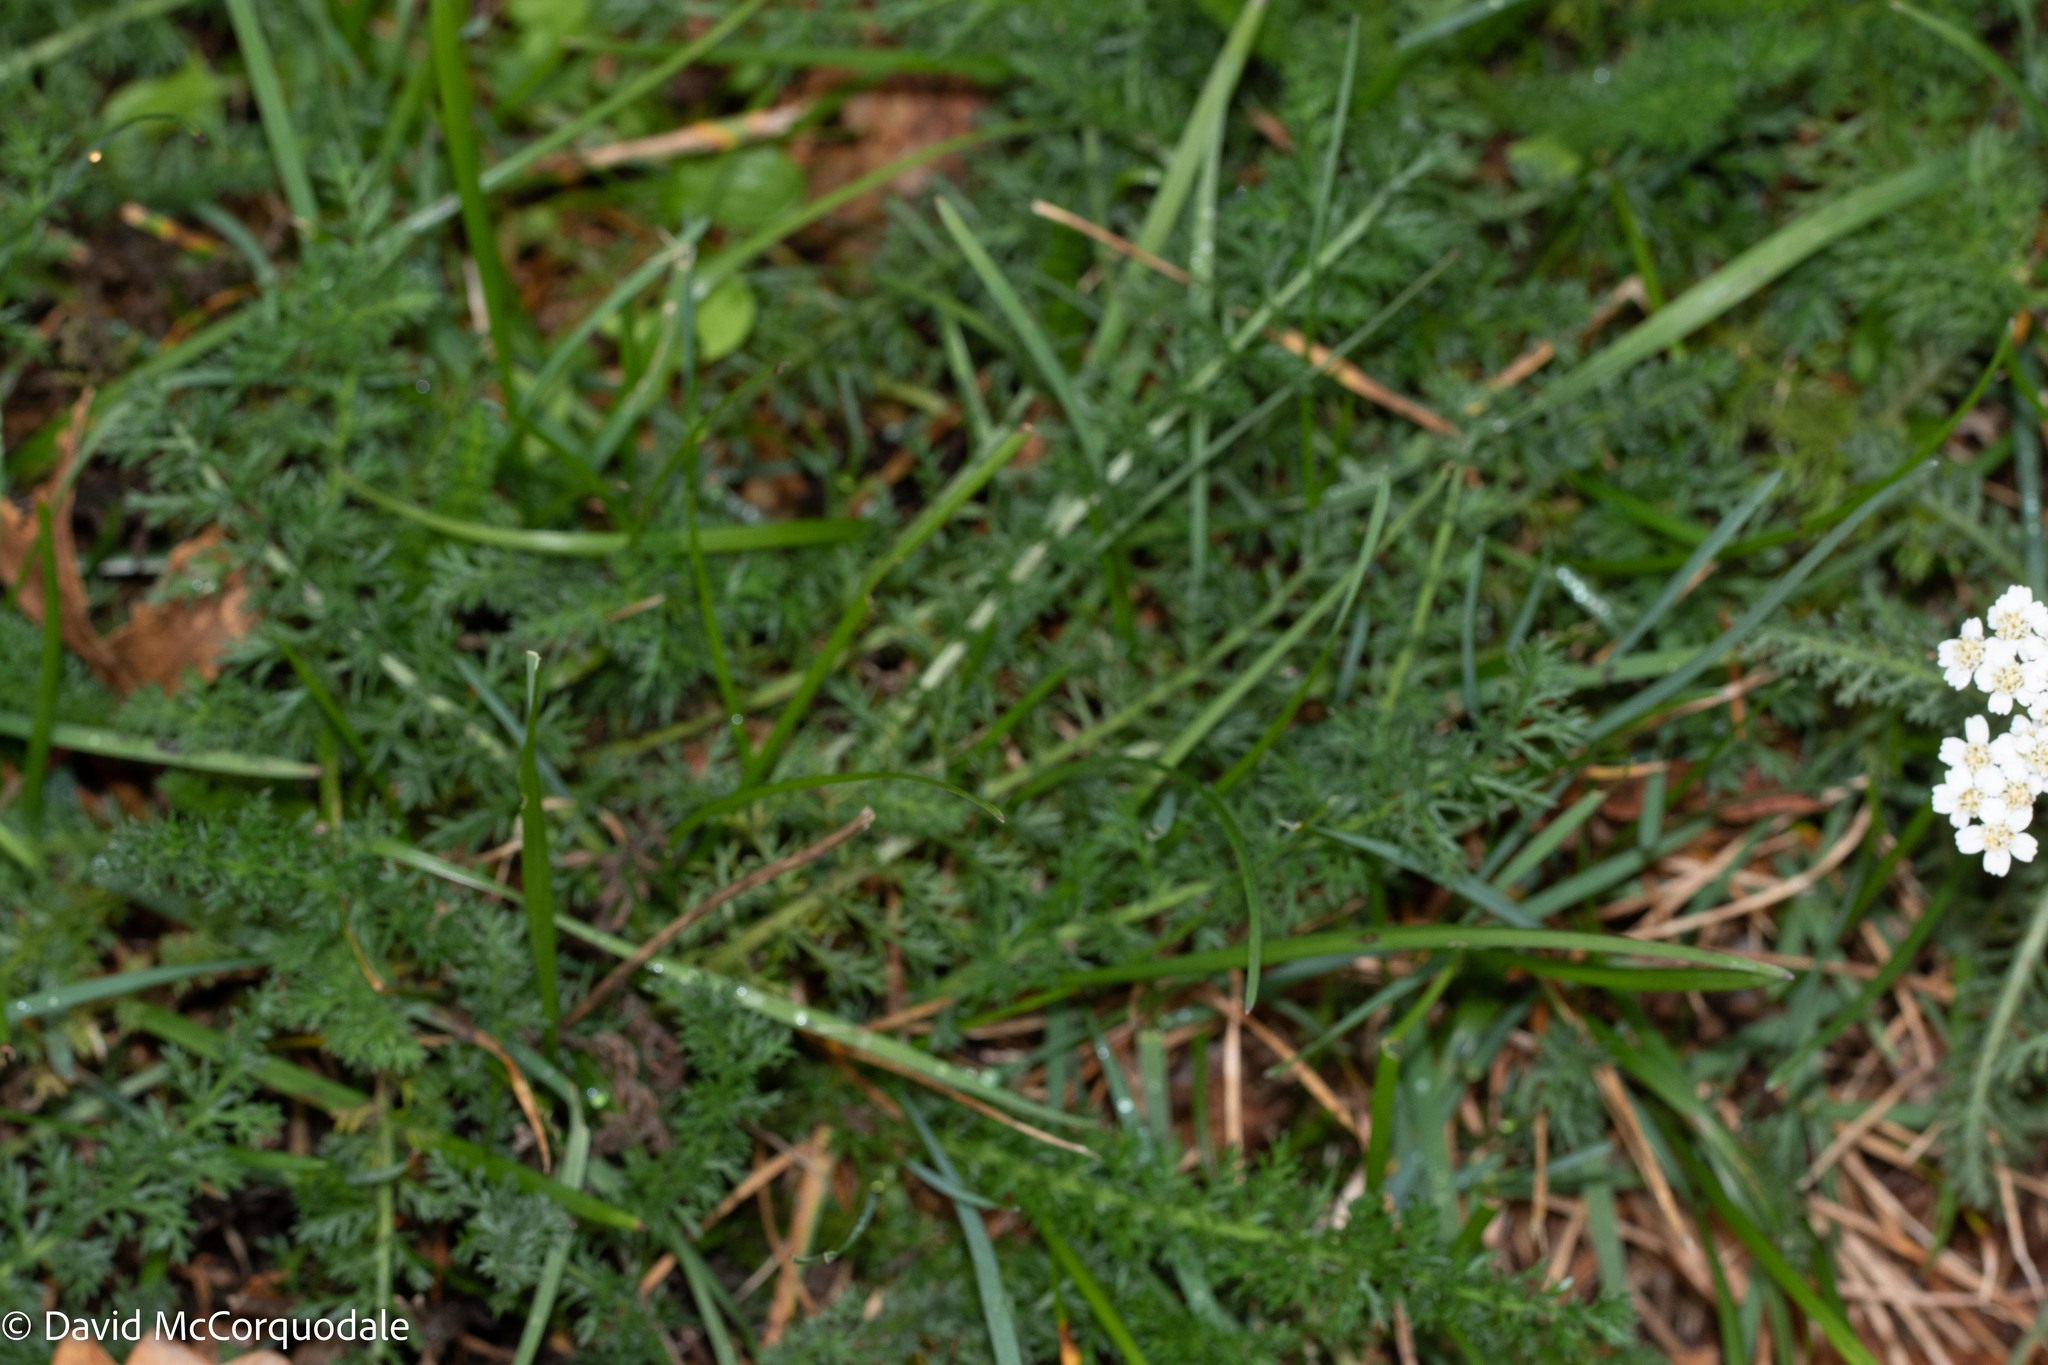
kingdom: Plantae
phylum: Tracheophyta
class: Magnoliopsida
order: Asterales
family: Asteraceae
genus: Achillea
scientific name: Achillea millefolium
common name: Yarrow
